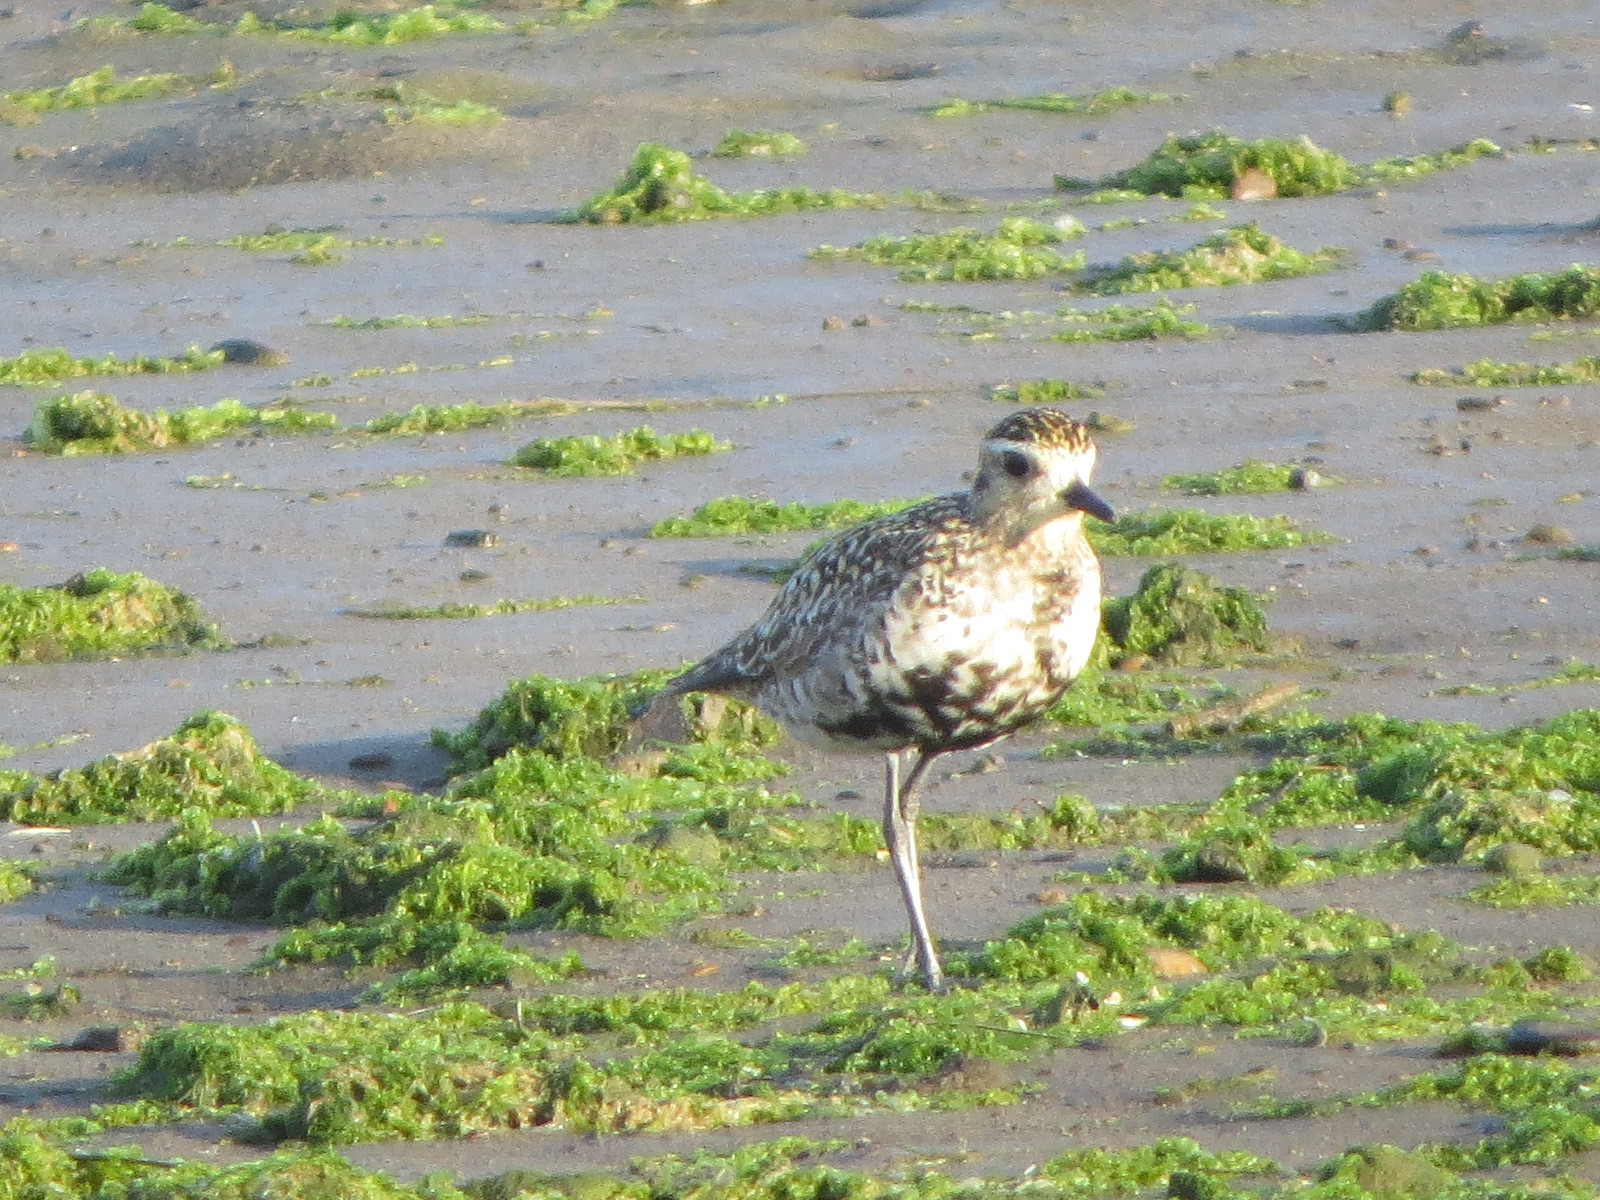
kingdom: Animalia
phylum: Chordata
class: Aves
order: Charadriiformes
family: Charadriidae
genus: Pluvialis
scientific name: Pluvialis fulva
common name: Pacific golden plover
